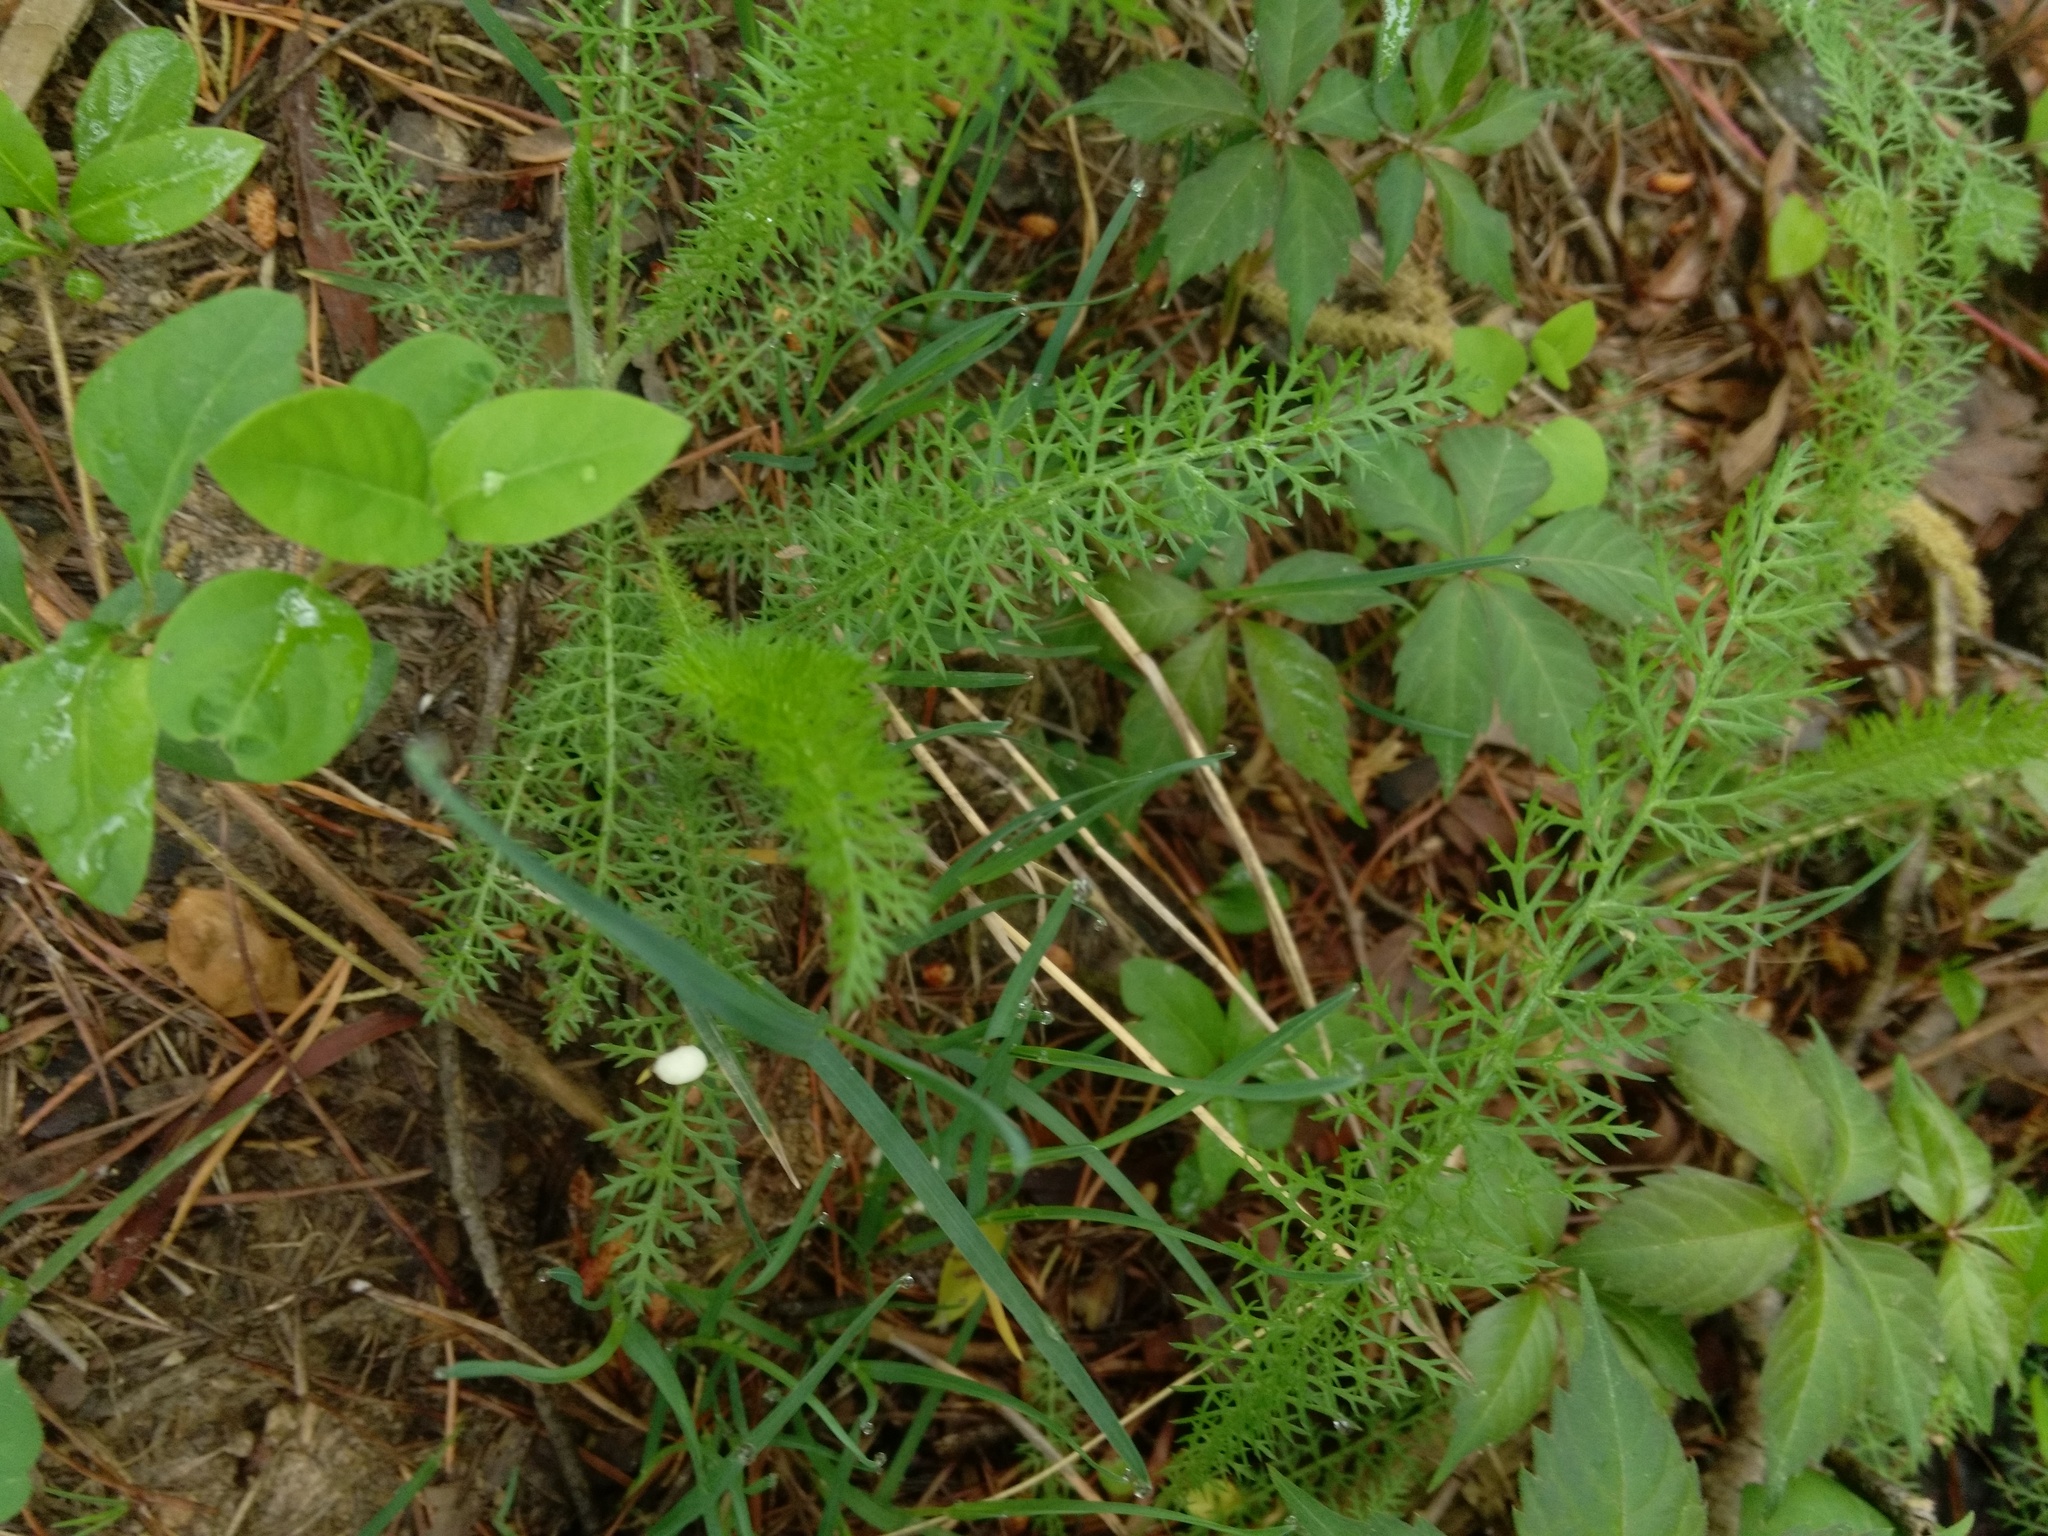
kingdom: Plantae
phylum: Tracheophyta
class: Magnoliopsida
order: Asterales
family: Asteraceae
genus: Achillea
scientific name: Achillea millefolium
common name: Yarrow
